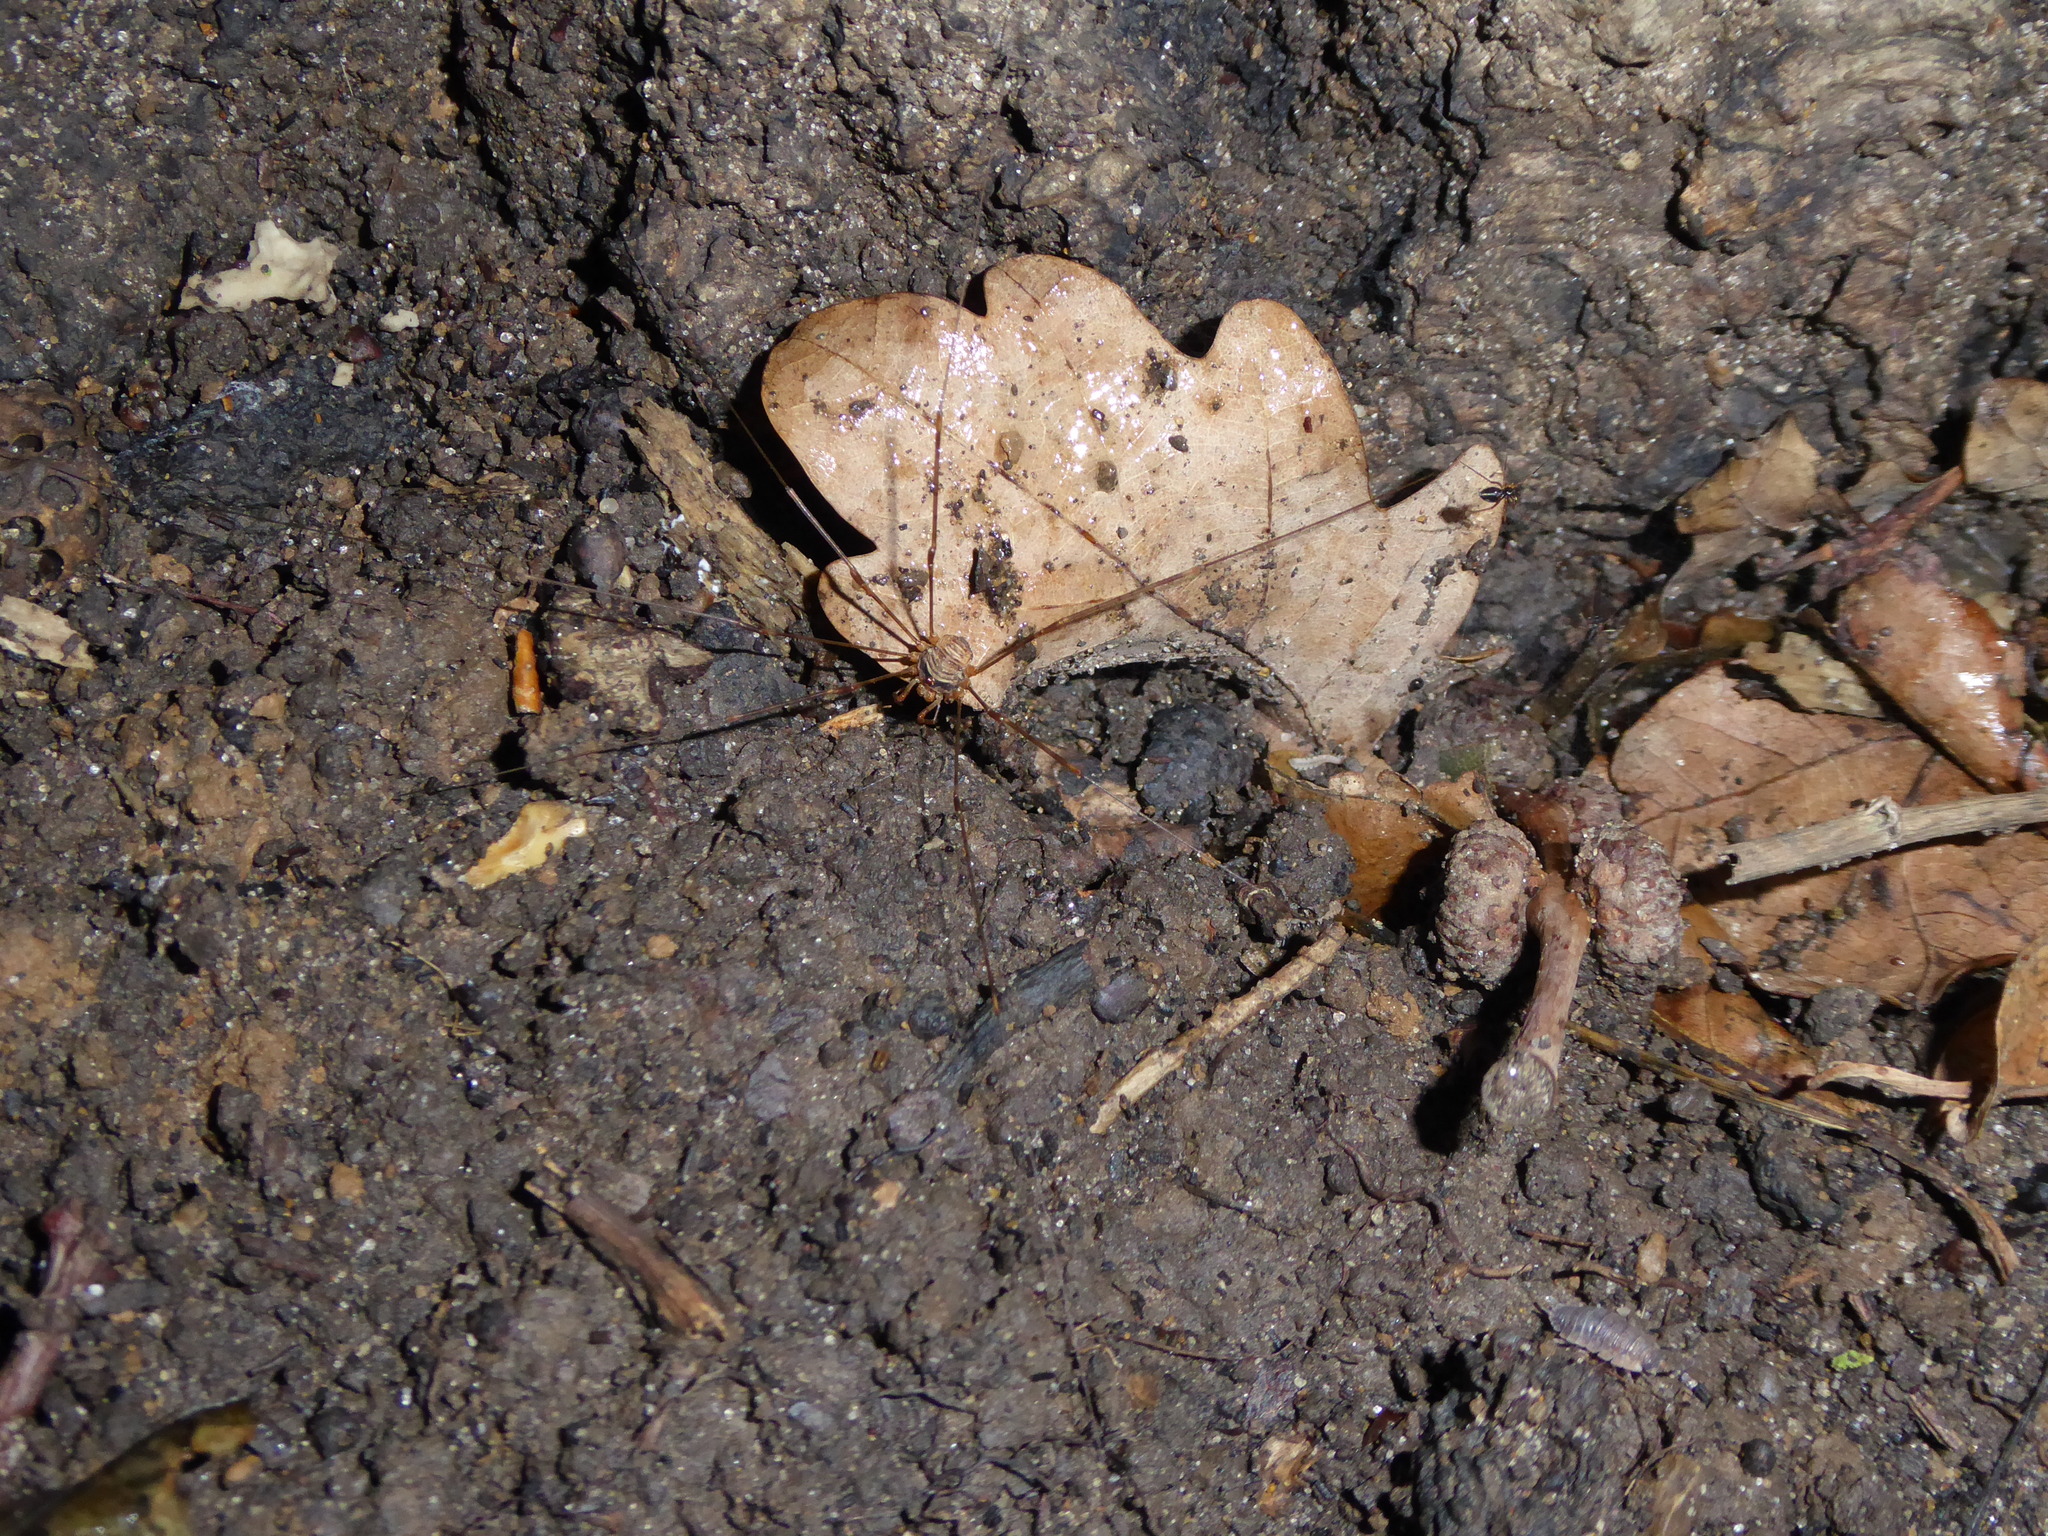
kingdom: Animalia
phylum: Arthropoda
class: Arachnida
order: Opiliones
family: Phalangiidae
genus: Dicranopalpus
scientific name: Dicranopalpus
